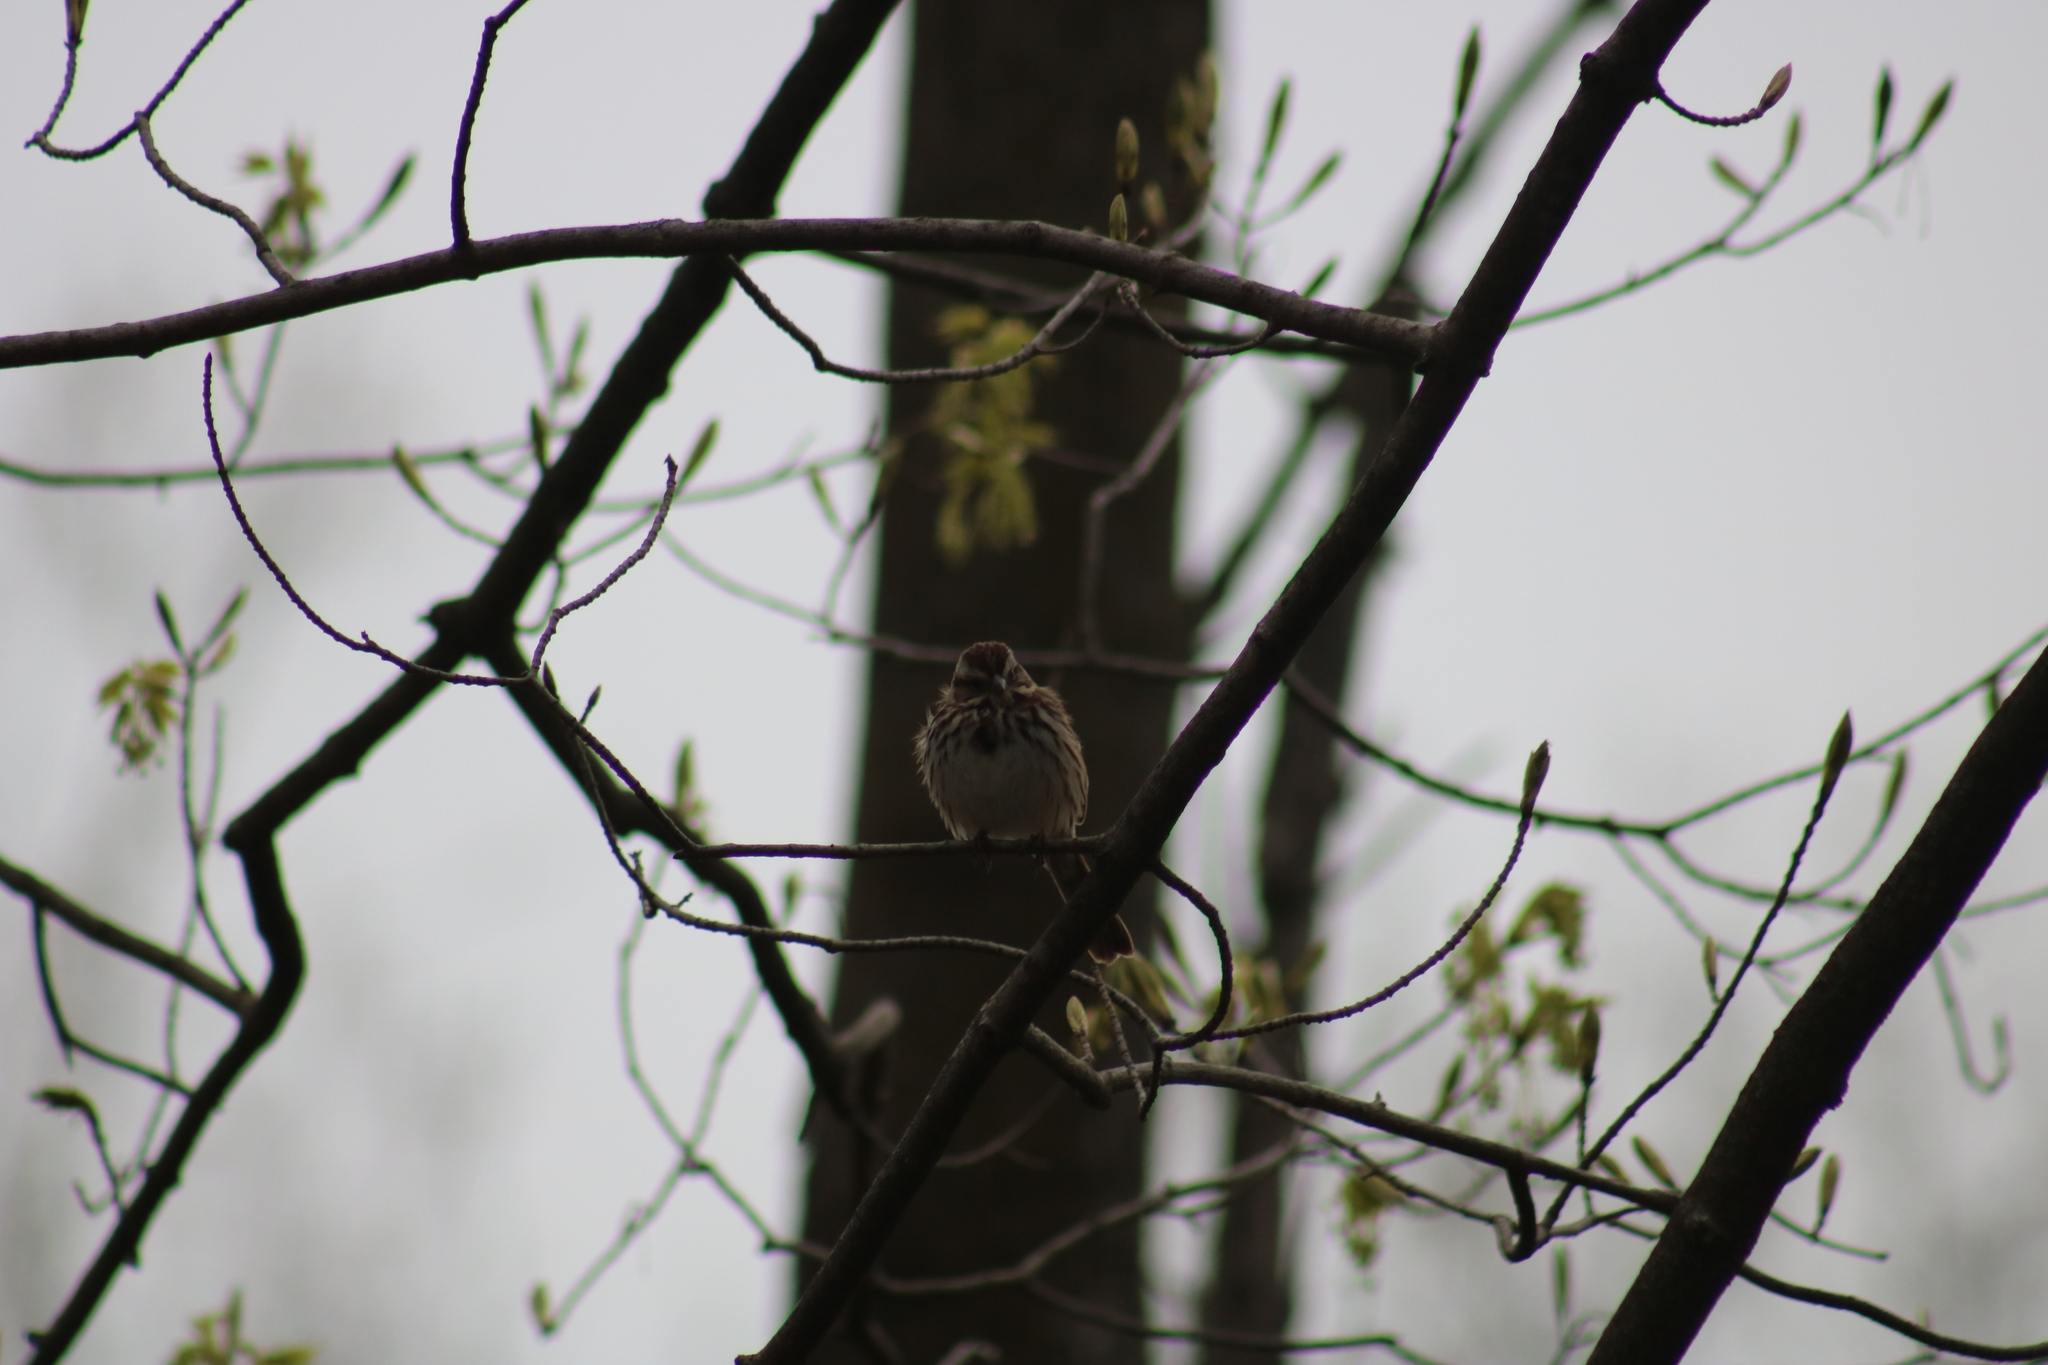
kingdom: Animalia
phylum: Chordata
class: Aves
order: Passeriformes
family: Passerellidae
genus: Melospiza
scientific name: Melospiza melodia
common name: Song sparrow
